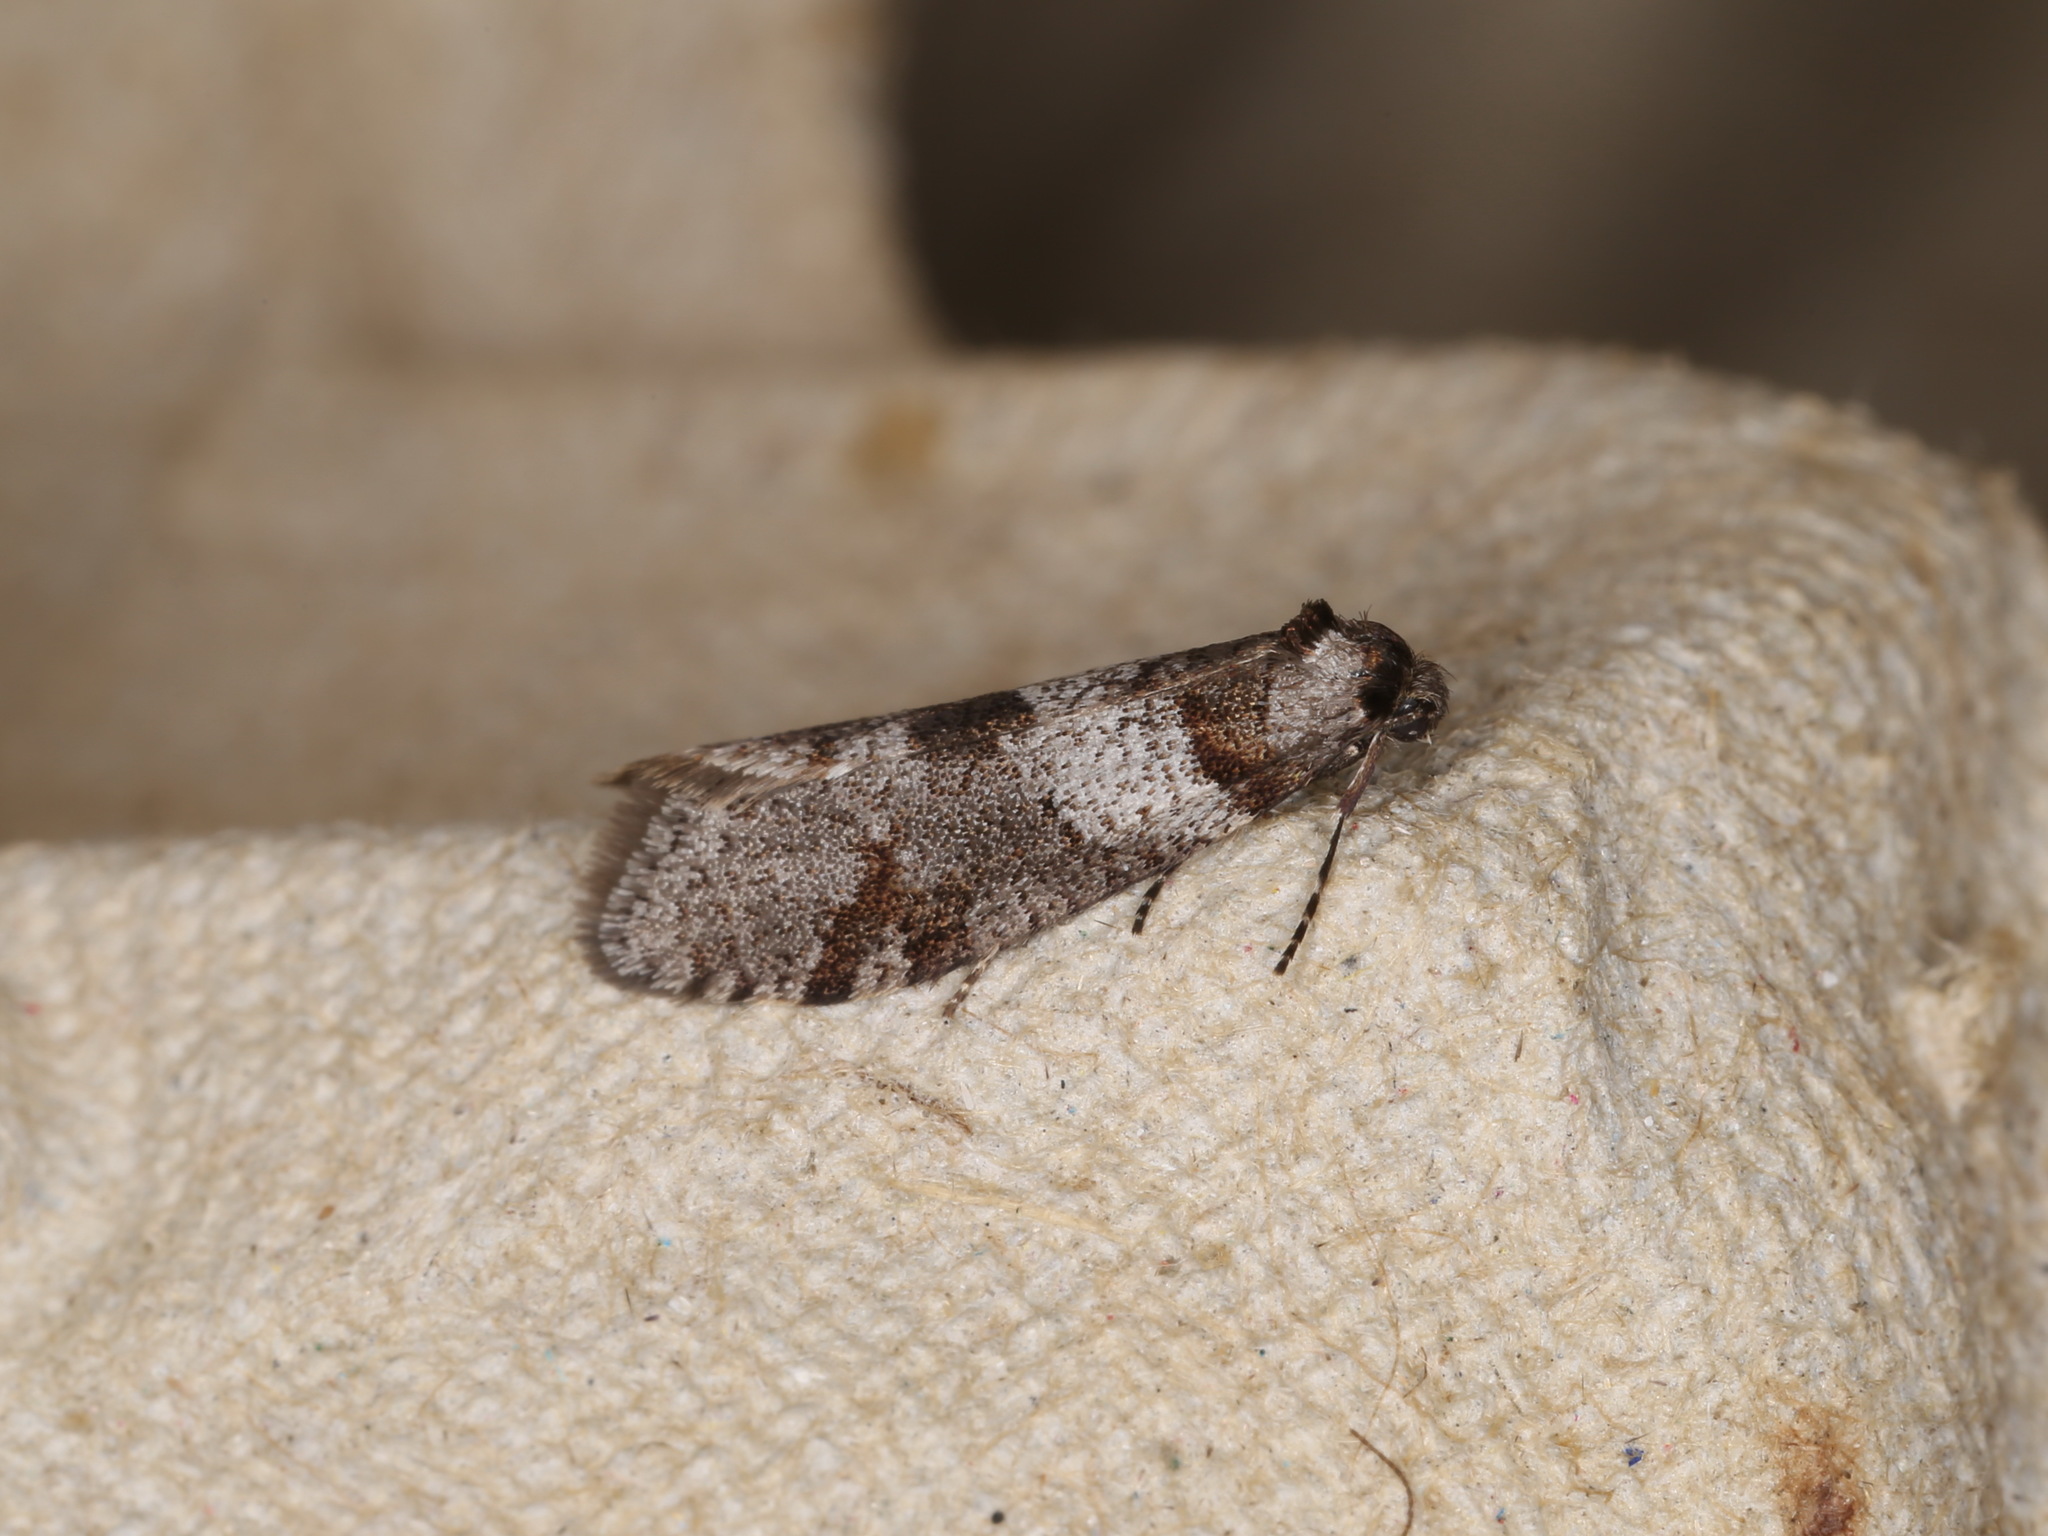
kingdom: Animalia
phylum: Arthropoda
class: Insecta
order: Lepidoptera
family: Psychidae
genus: Lepidoscia
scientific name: Lepidoscia heliochares
